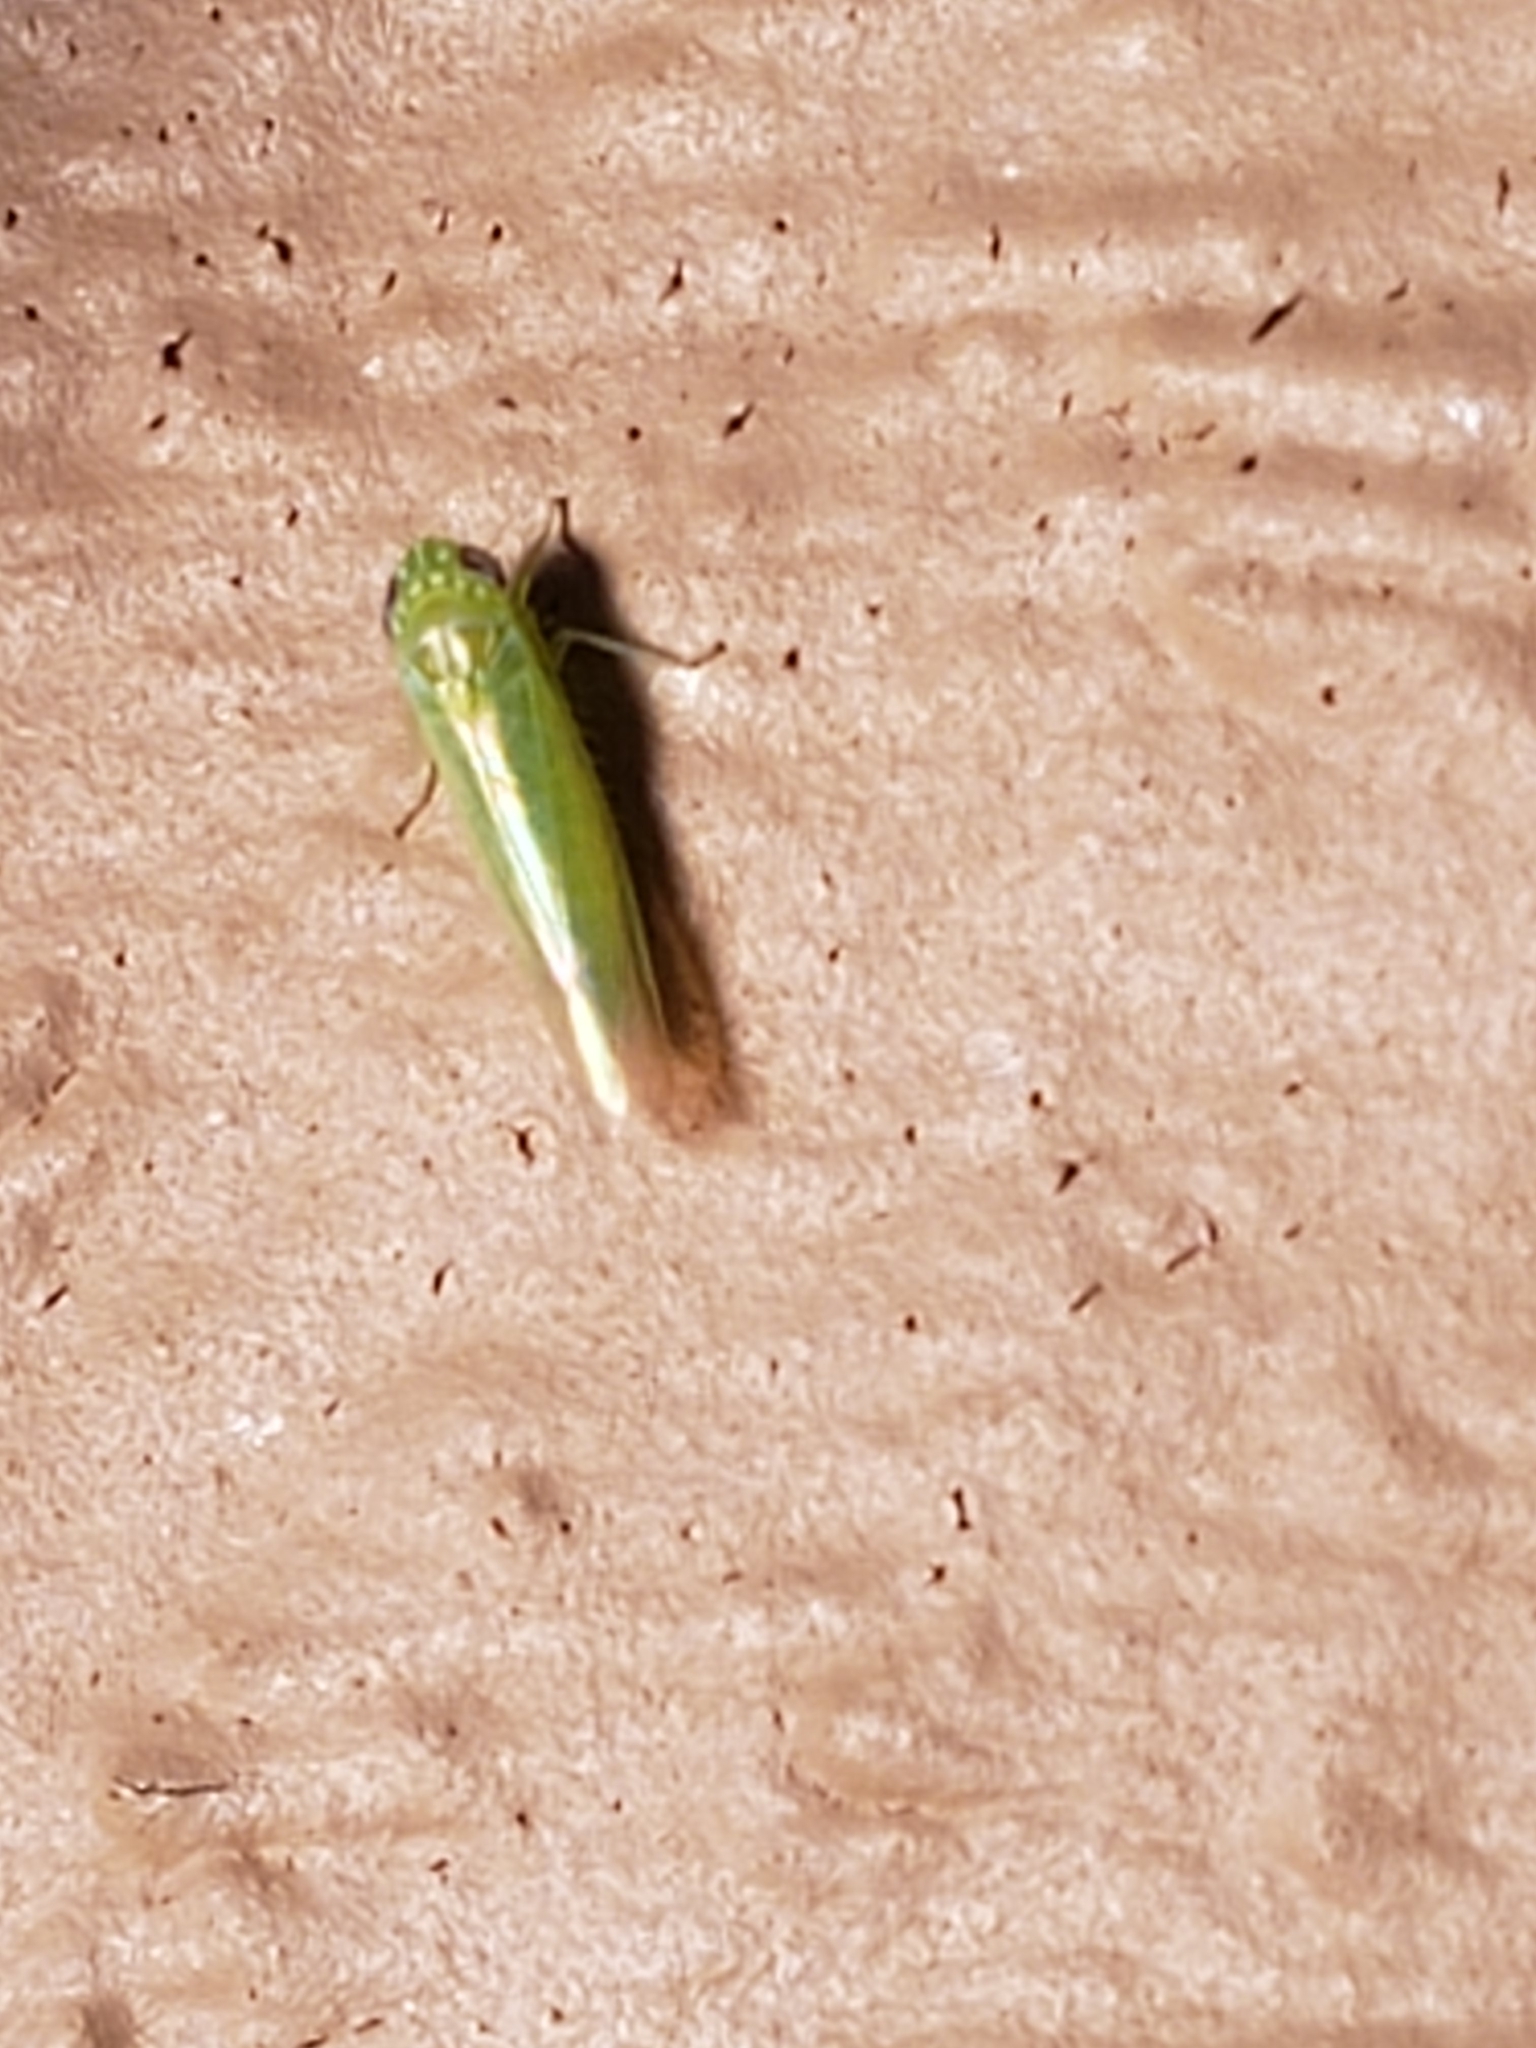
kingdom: Animalia
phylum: Arthropoda
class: Insecta
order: Hemiptera
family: Cicadellidae
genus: Empoasca
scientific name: Empoasca fabae
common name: Potato leafhopper
